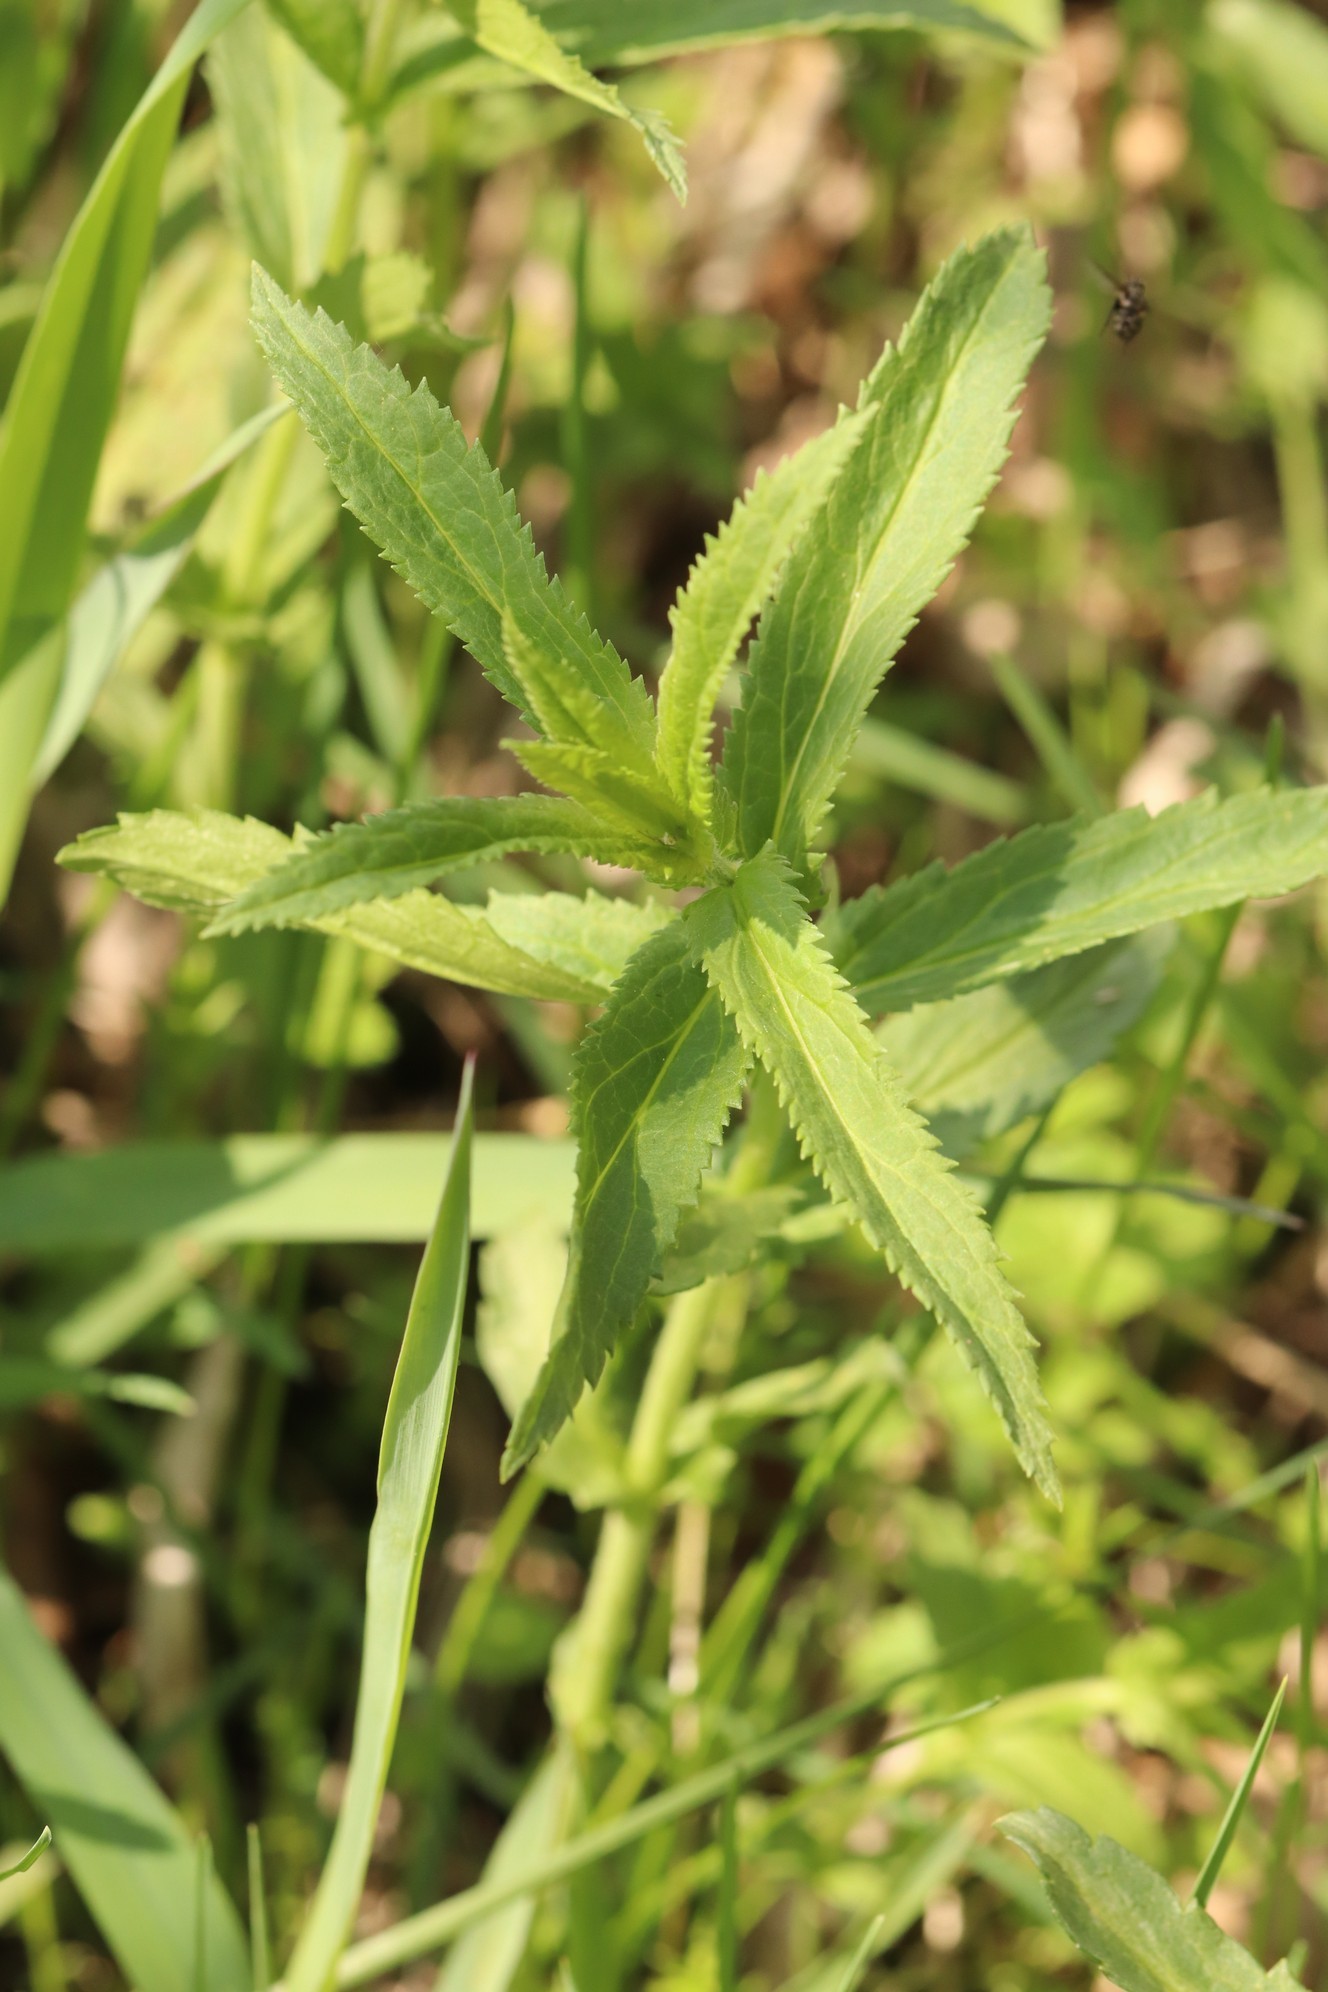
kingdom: Plantae
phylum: Tracheophyta
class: Magnoliopsida
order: Lamiales
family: Plantaginaceae
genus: Veronica
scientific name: Veronica longifolia
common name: Garden speedwell
